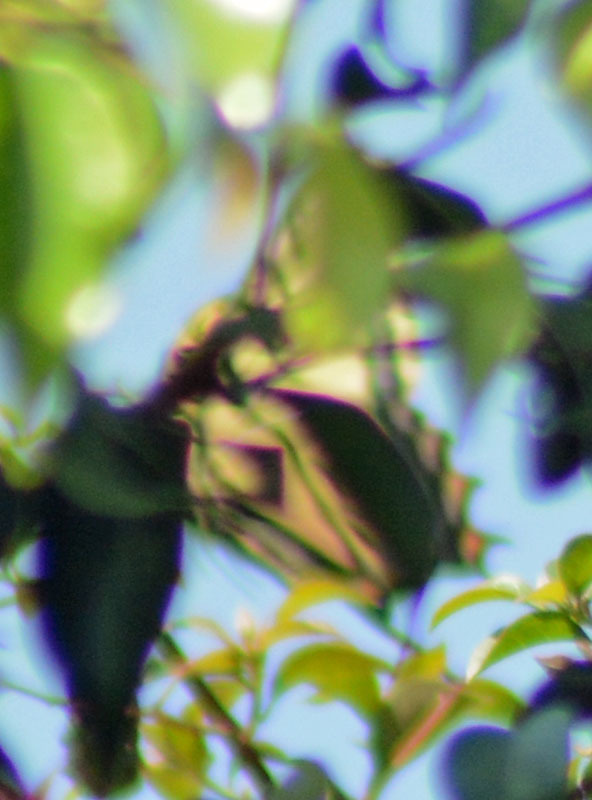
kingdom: Animalia
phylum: Arthropoda
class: Insecta
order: Lepidoptera
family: Papilionidae
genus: Papilio
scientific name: Papilio multicaudata
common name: Two-tailed tiger swallowtail
